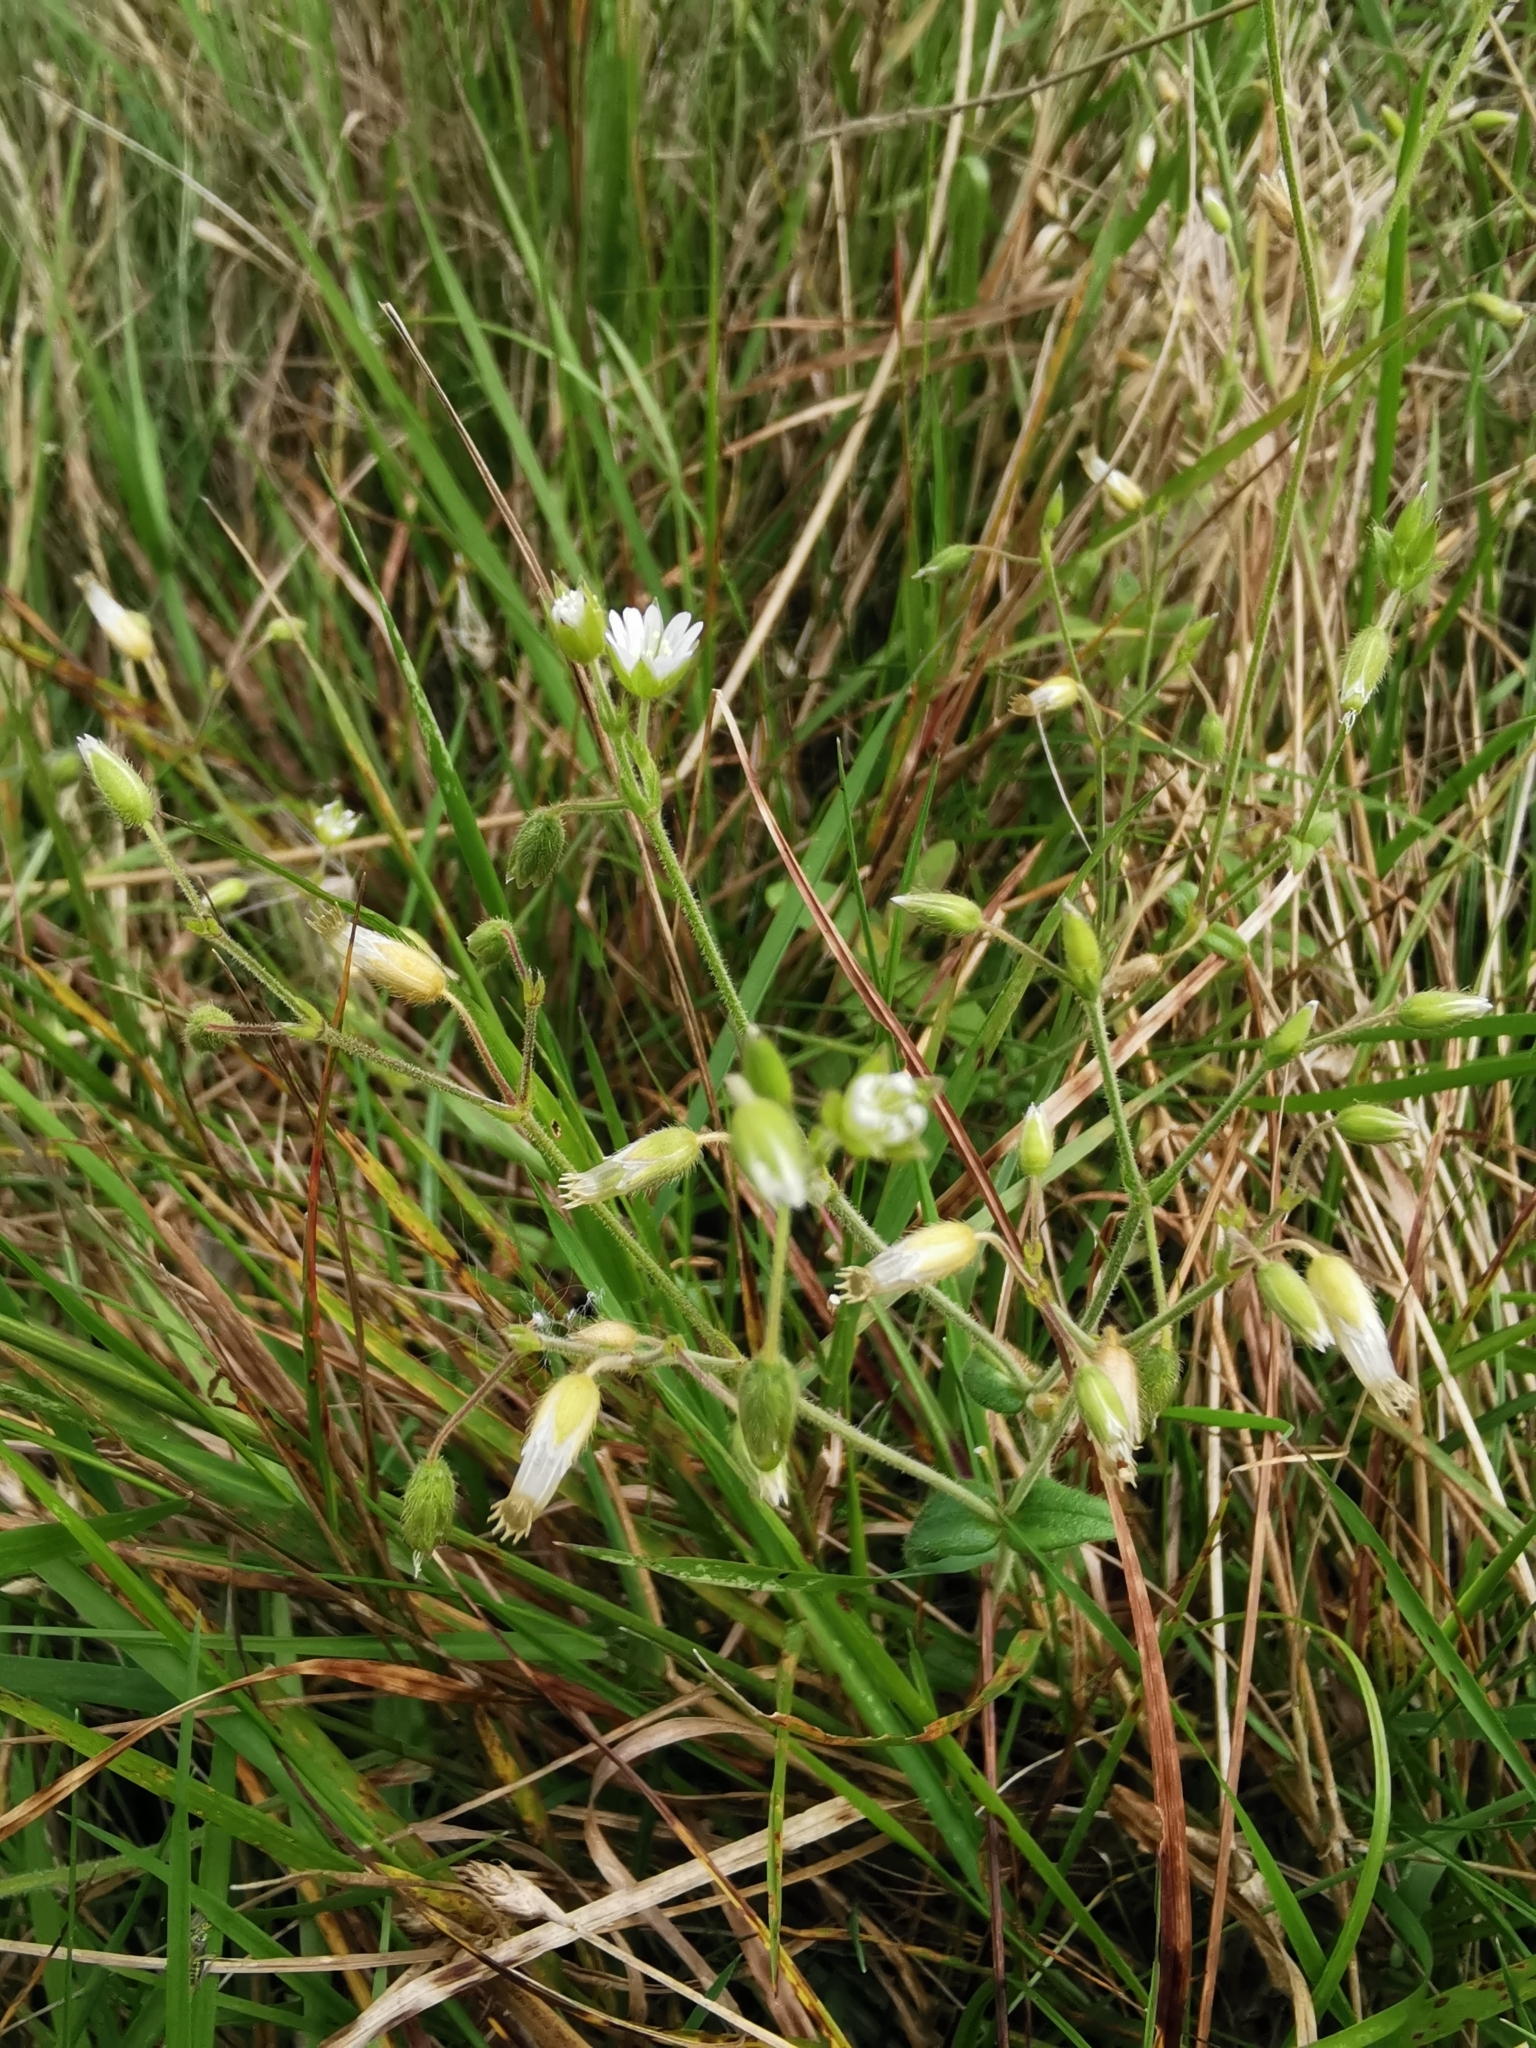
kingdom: Plantae
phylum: Tracheophyta
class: Magnoliopsida
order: Caryophyllales
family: Caryophyllaceae
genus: Cerastium
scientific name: Cerastium fontanum
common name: Common mouse-ear
